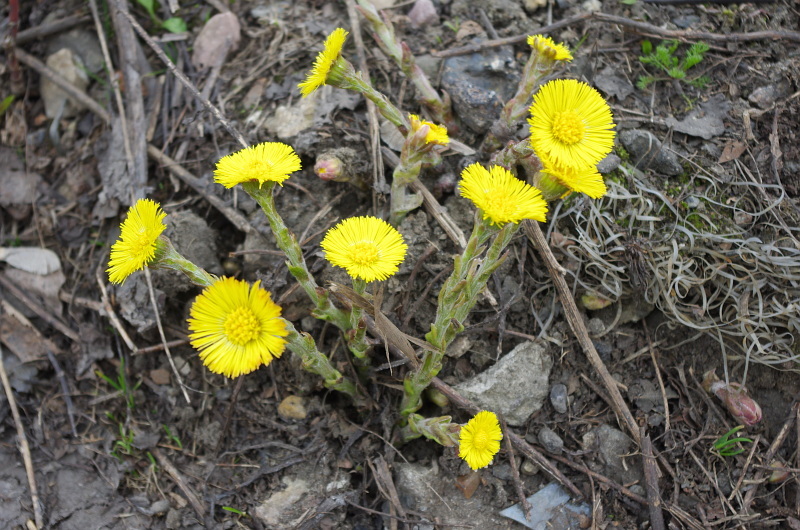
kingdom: Plantae
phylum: Tracheophyta
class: Magnoliopsida
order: Asterales
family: Asteraceae
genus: Tussilago
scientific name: Tussilago farfara
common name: Coltsfoot
